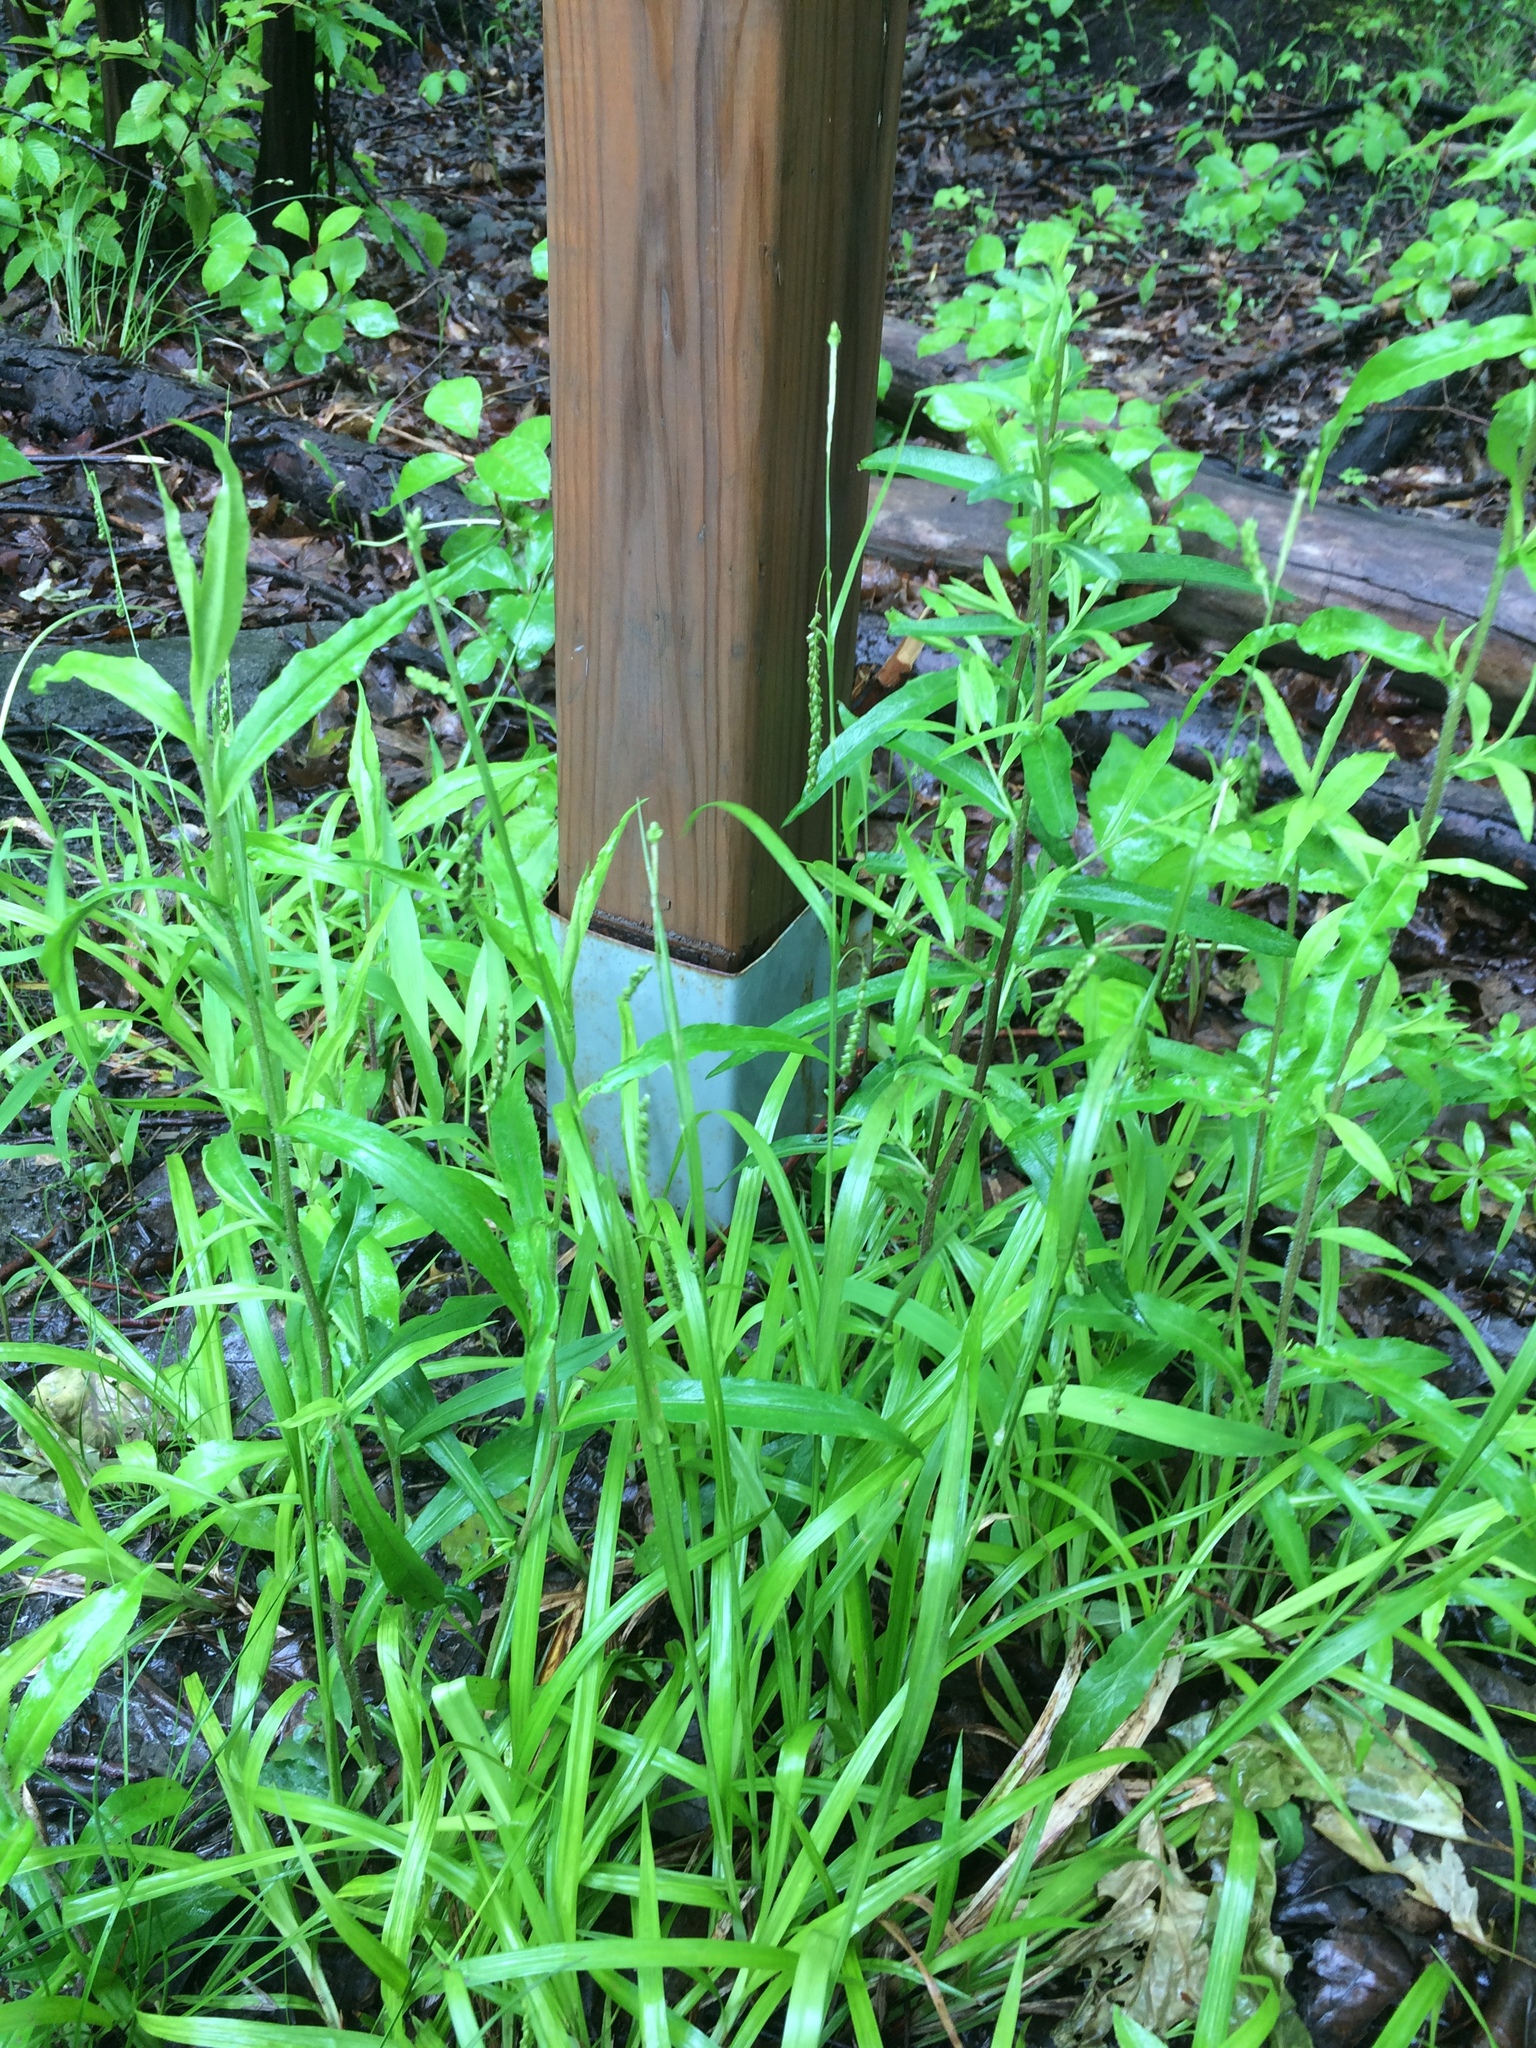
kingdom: Plantae
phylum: Tracheophyta
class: Liliopsida
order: Poales
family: Cyperaceae
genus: Carex
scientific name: Carex gracillima
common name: Graceful sedge
